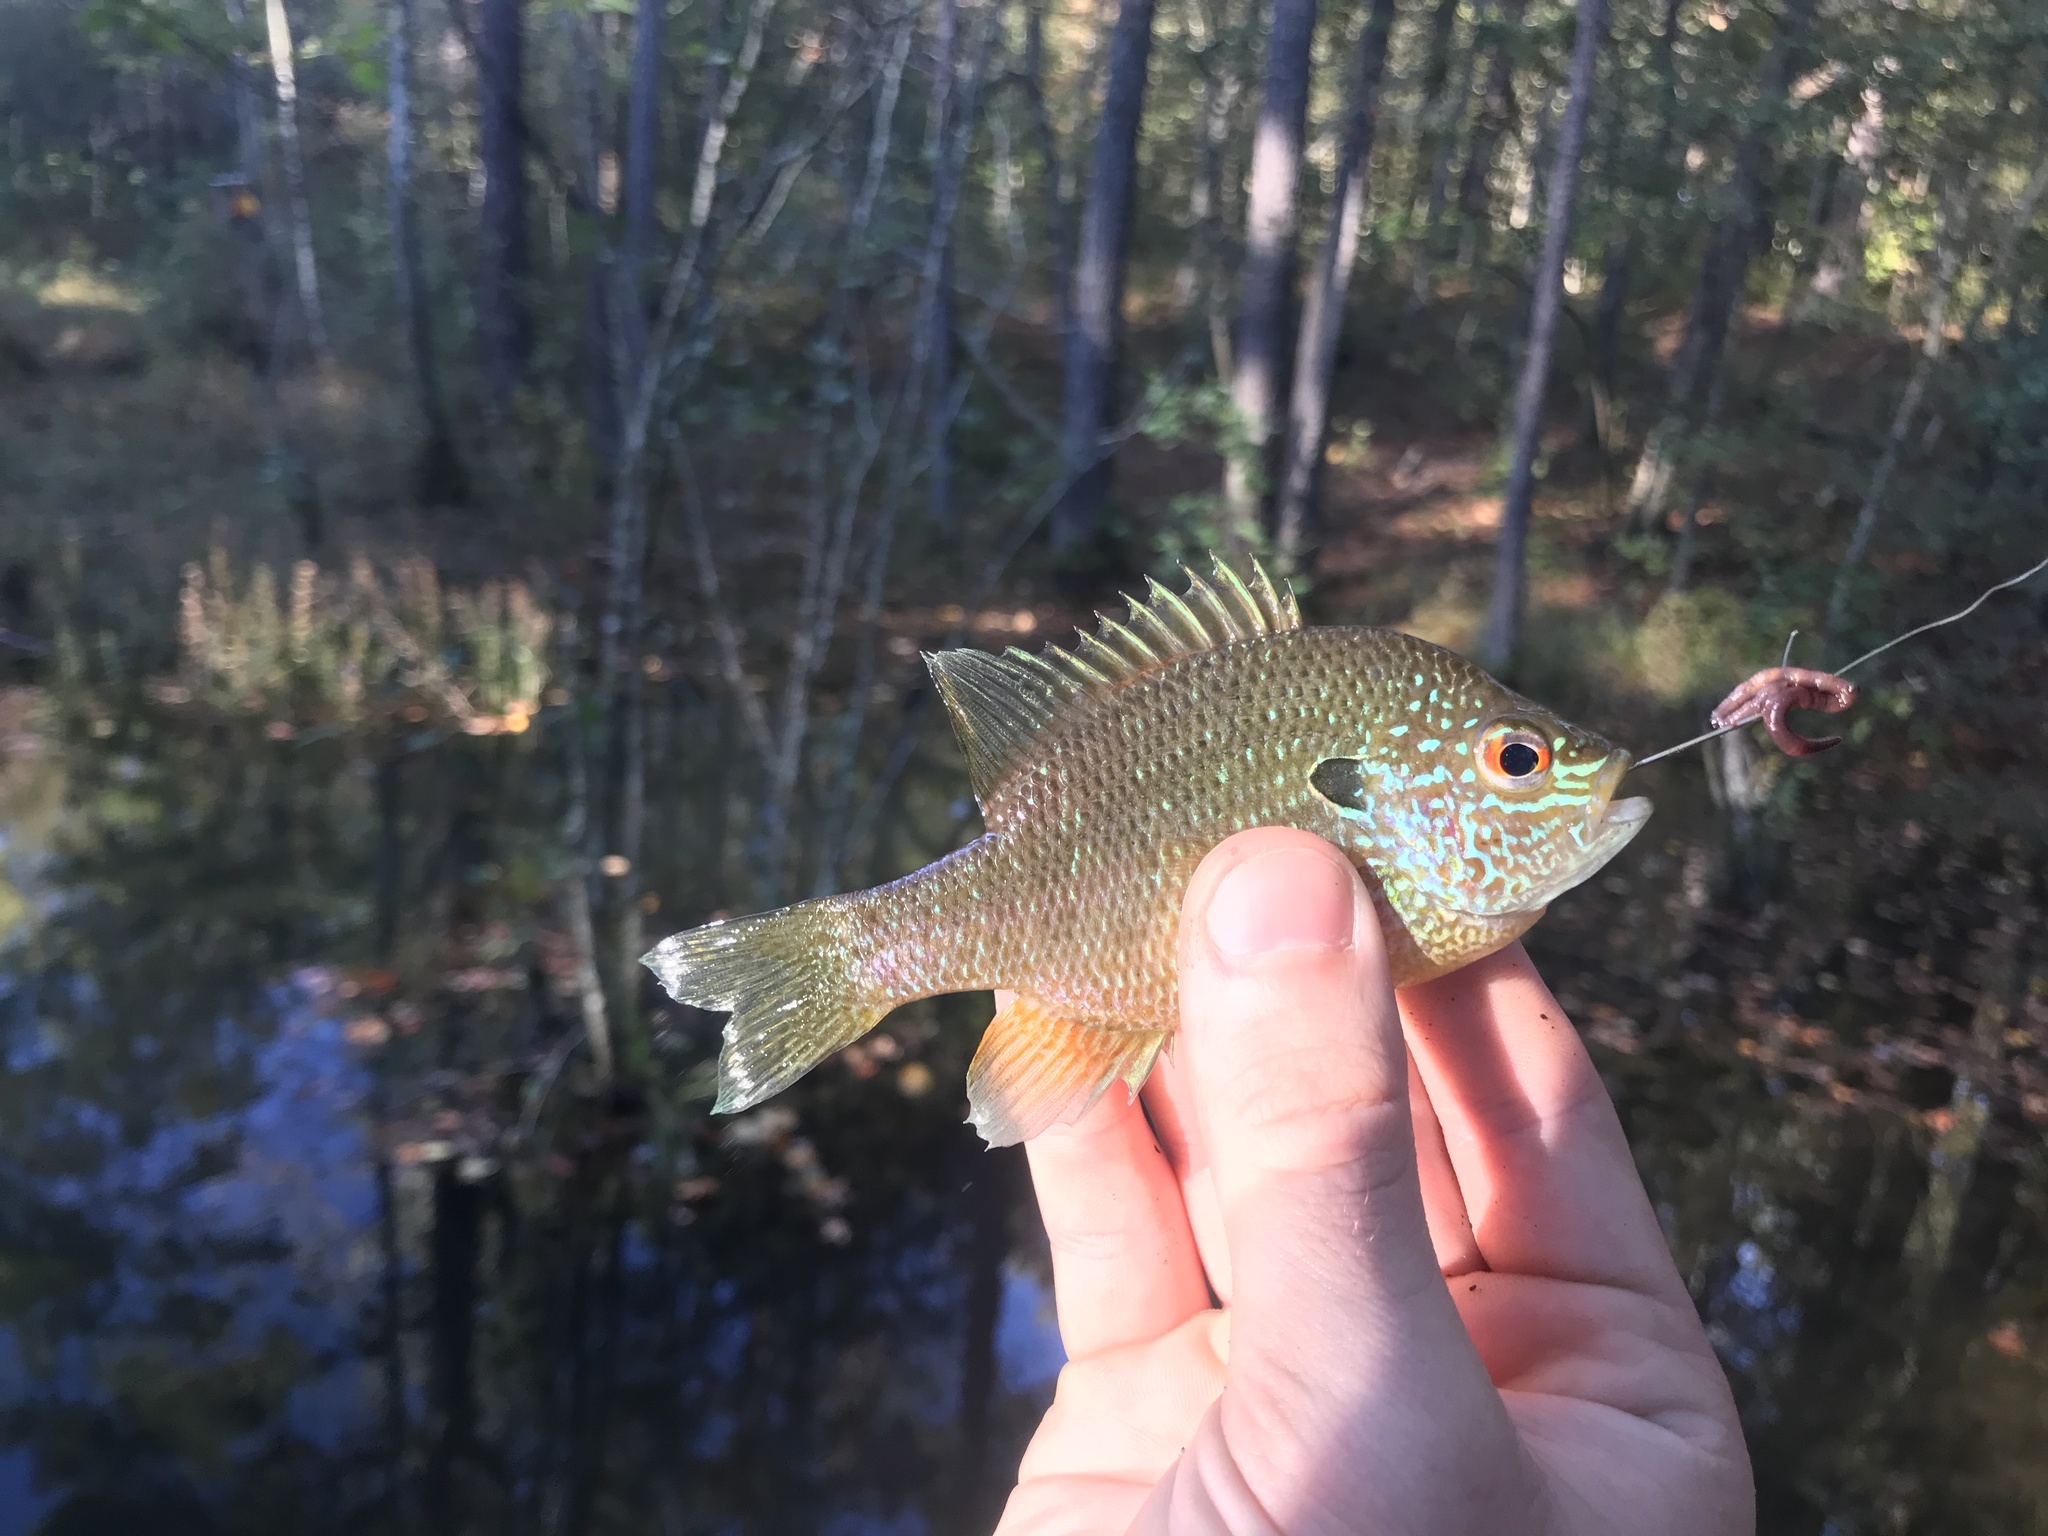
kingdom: Animalia
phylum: Chordata
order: Perciformes
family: Centrarchidae
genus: Lepomis
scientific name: Lepomis marginatus
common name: Dollar sunfish
